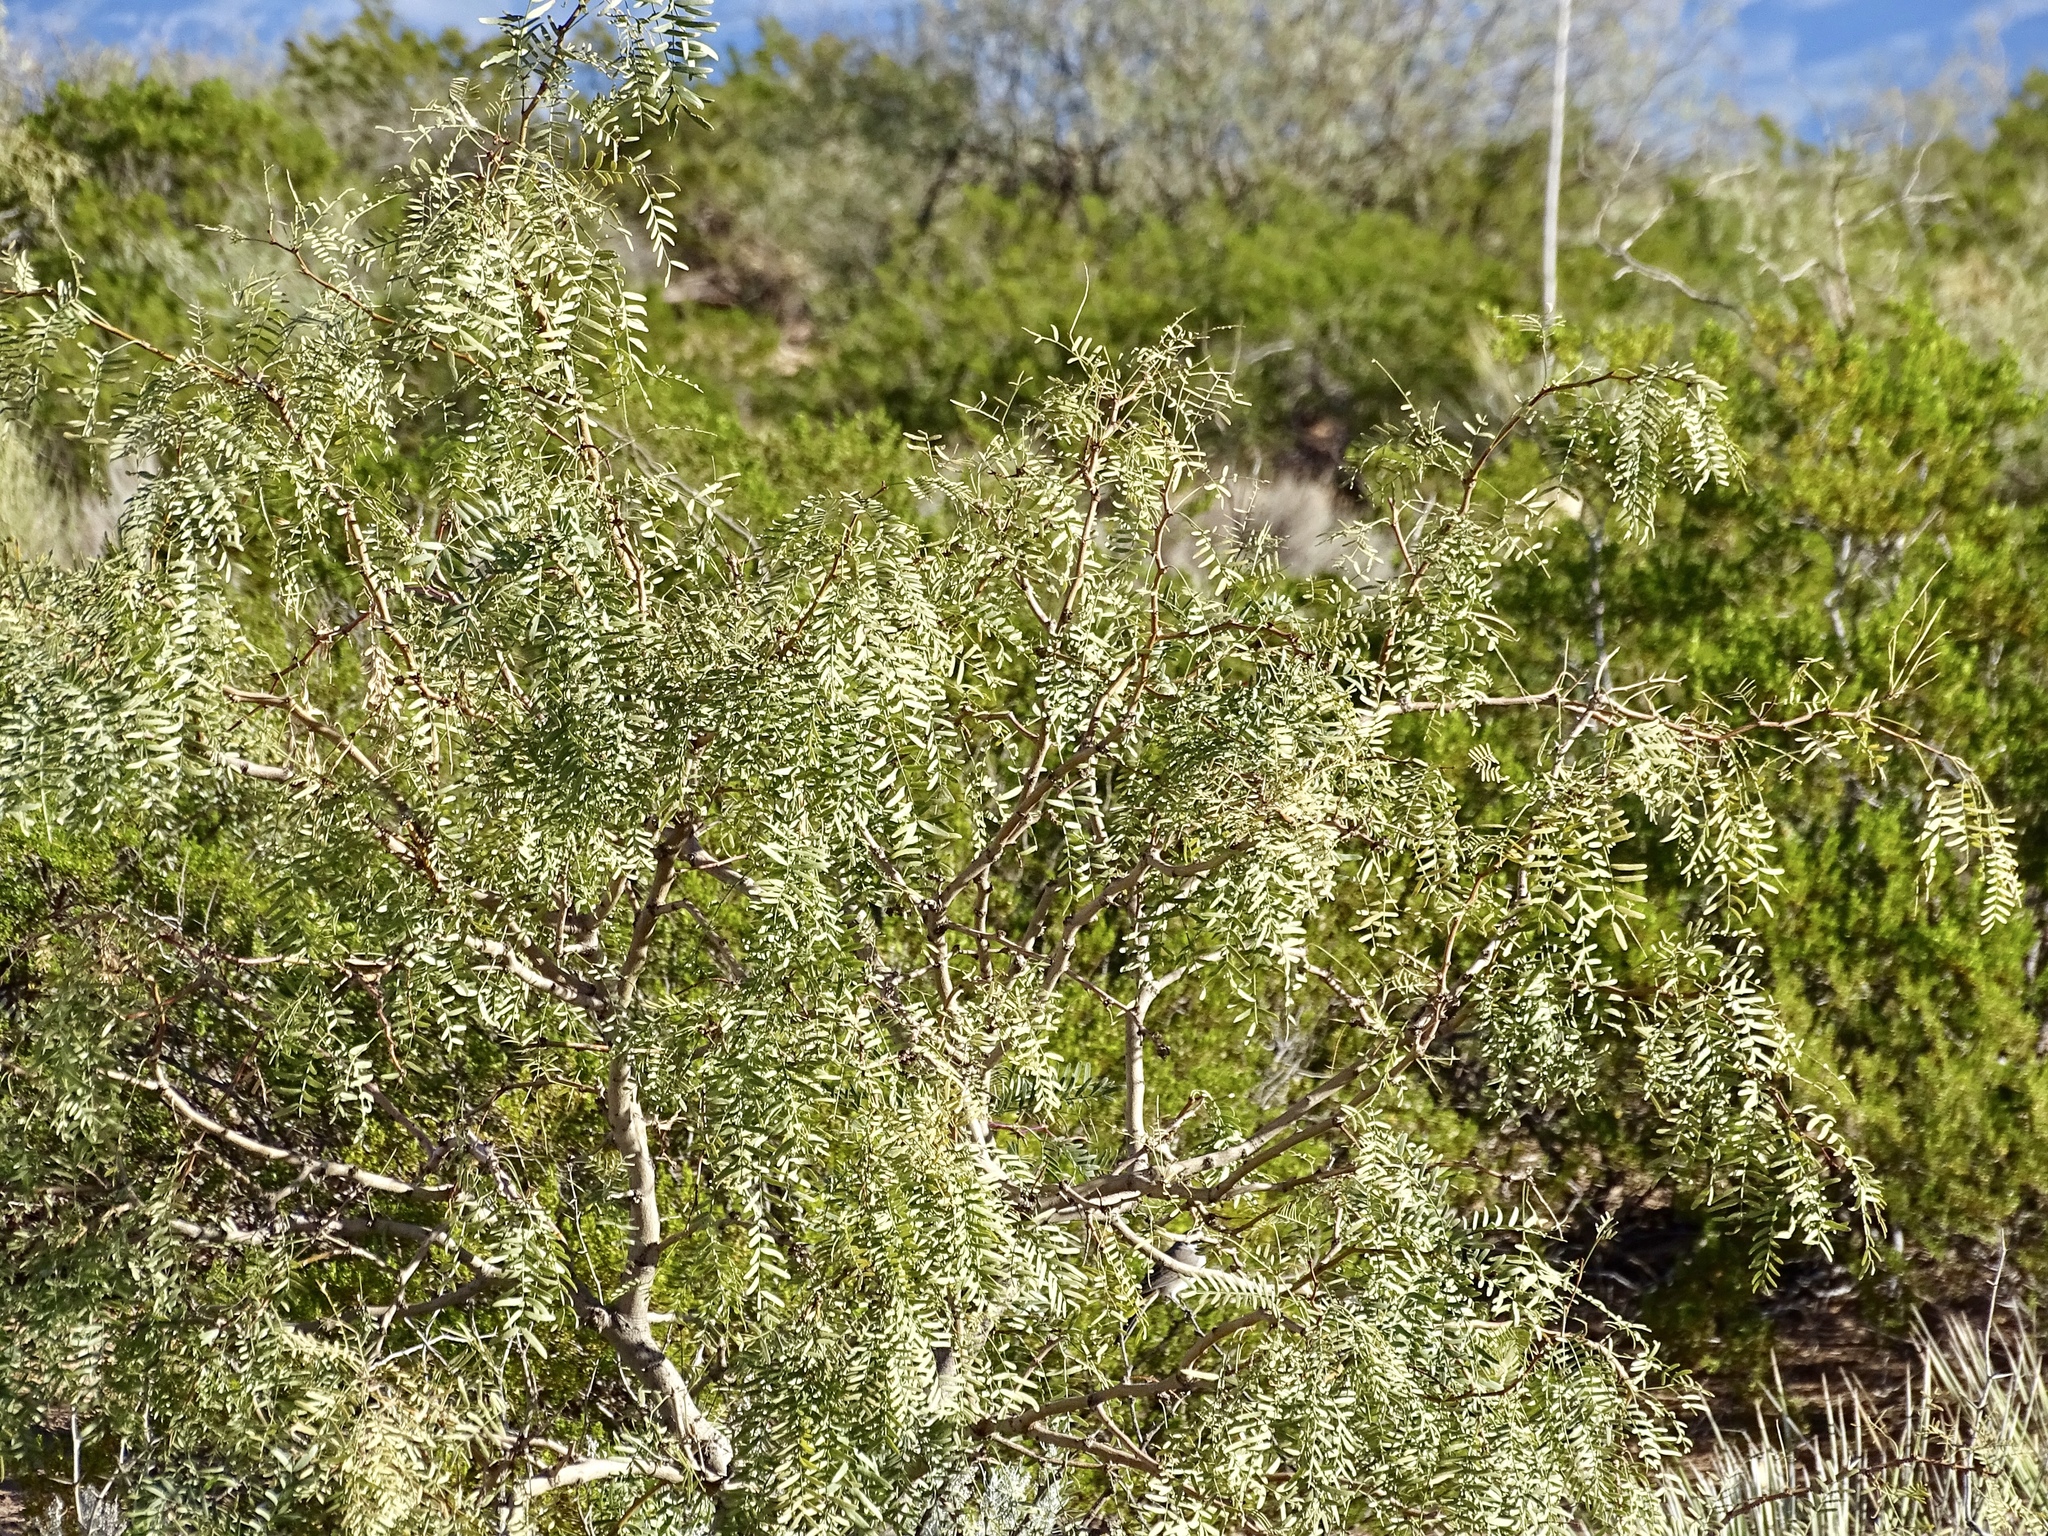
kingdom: Plantae
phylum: Tracheophyta
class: Magnoliopsida
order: Fabales
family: Fabaceae
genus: Prosopis
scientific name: Prosopis glandulosa
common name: Honey mesquite
